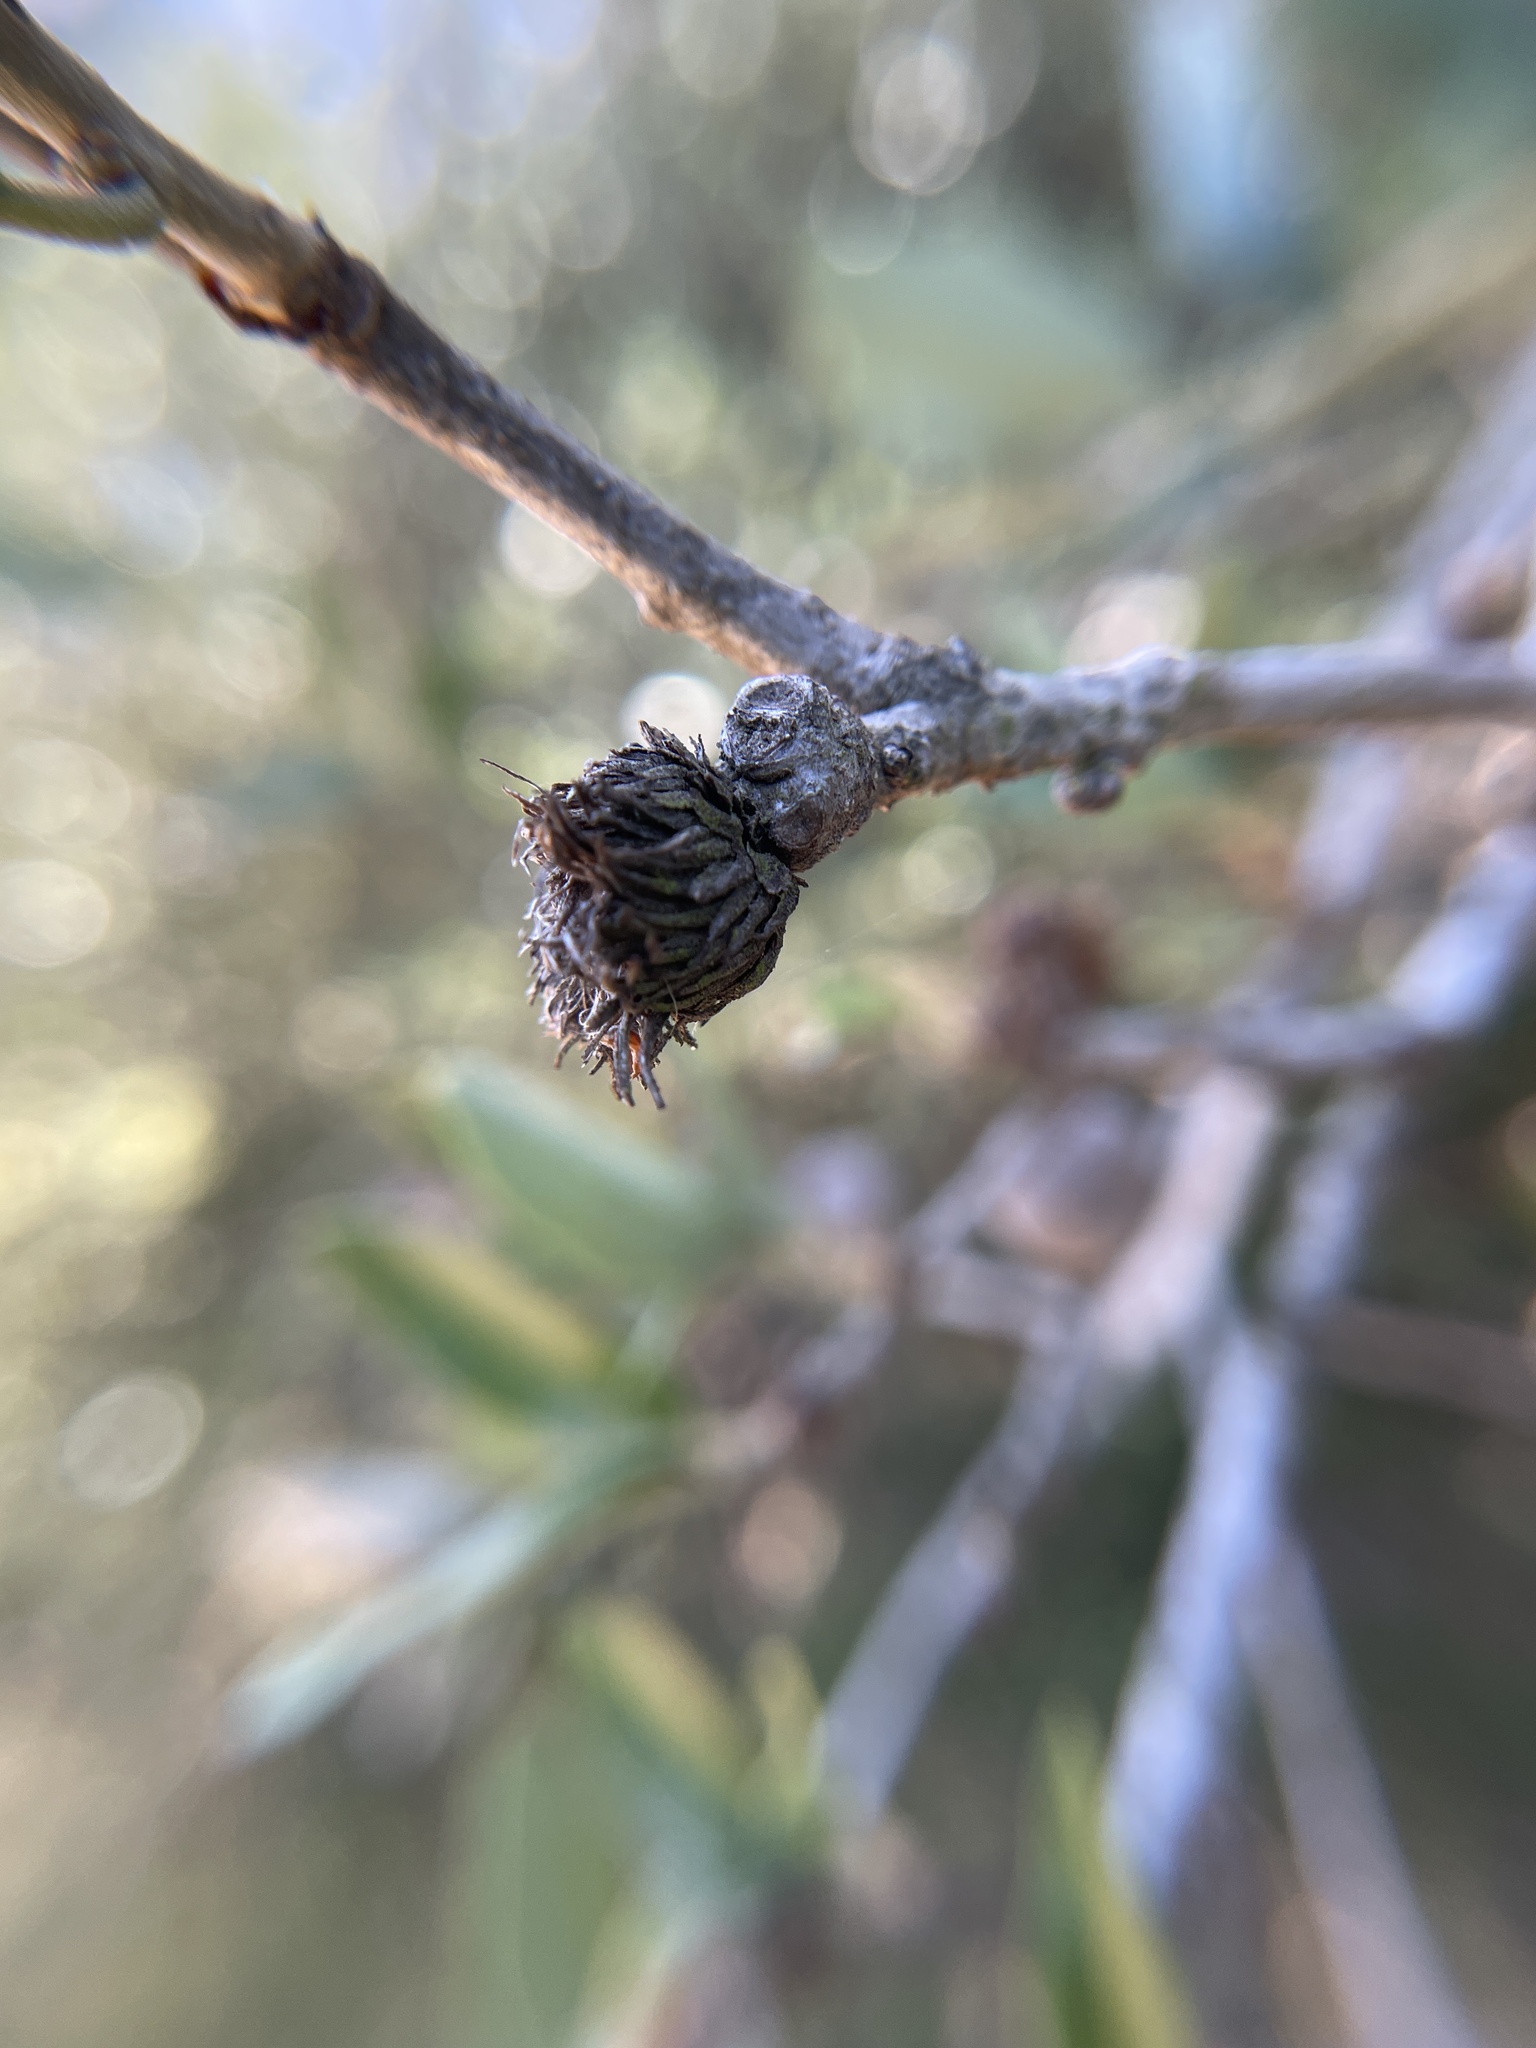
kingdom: Animalia
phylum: Arthropoda
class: Insecta
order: Hymenoptera
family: Cynipidae
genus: Andricus
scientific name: Andricus quercusfoliatus
